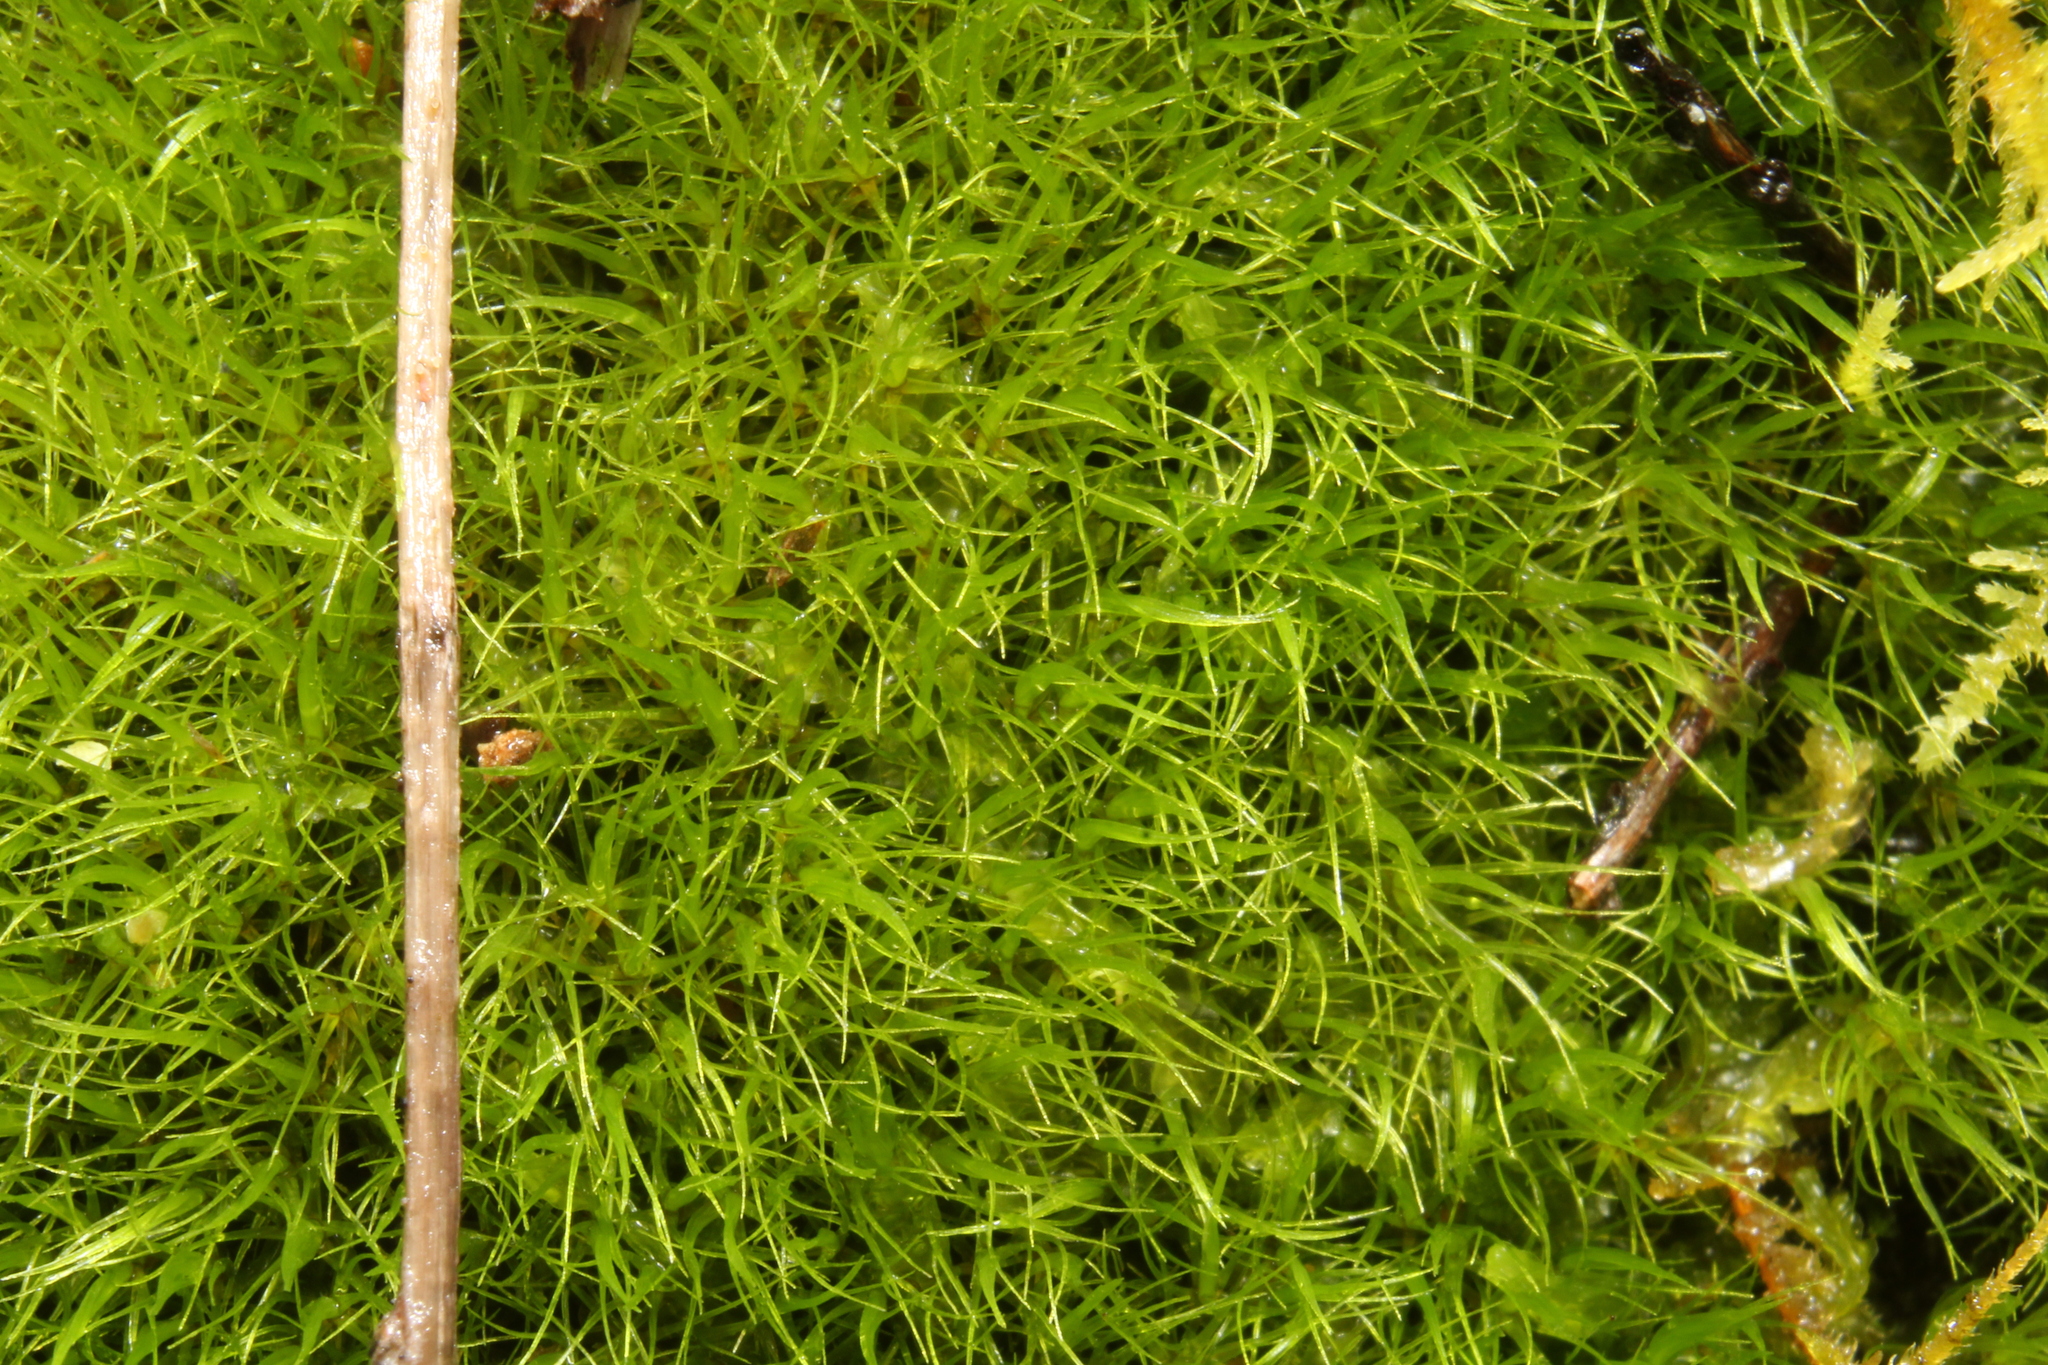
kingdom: Plantae
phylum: Bryophyta
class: Bryopsida
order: Dicranales
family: Dicranaceae
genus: Dicranoloma
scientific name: Dicranoloma diaphanoneuron
